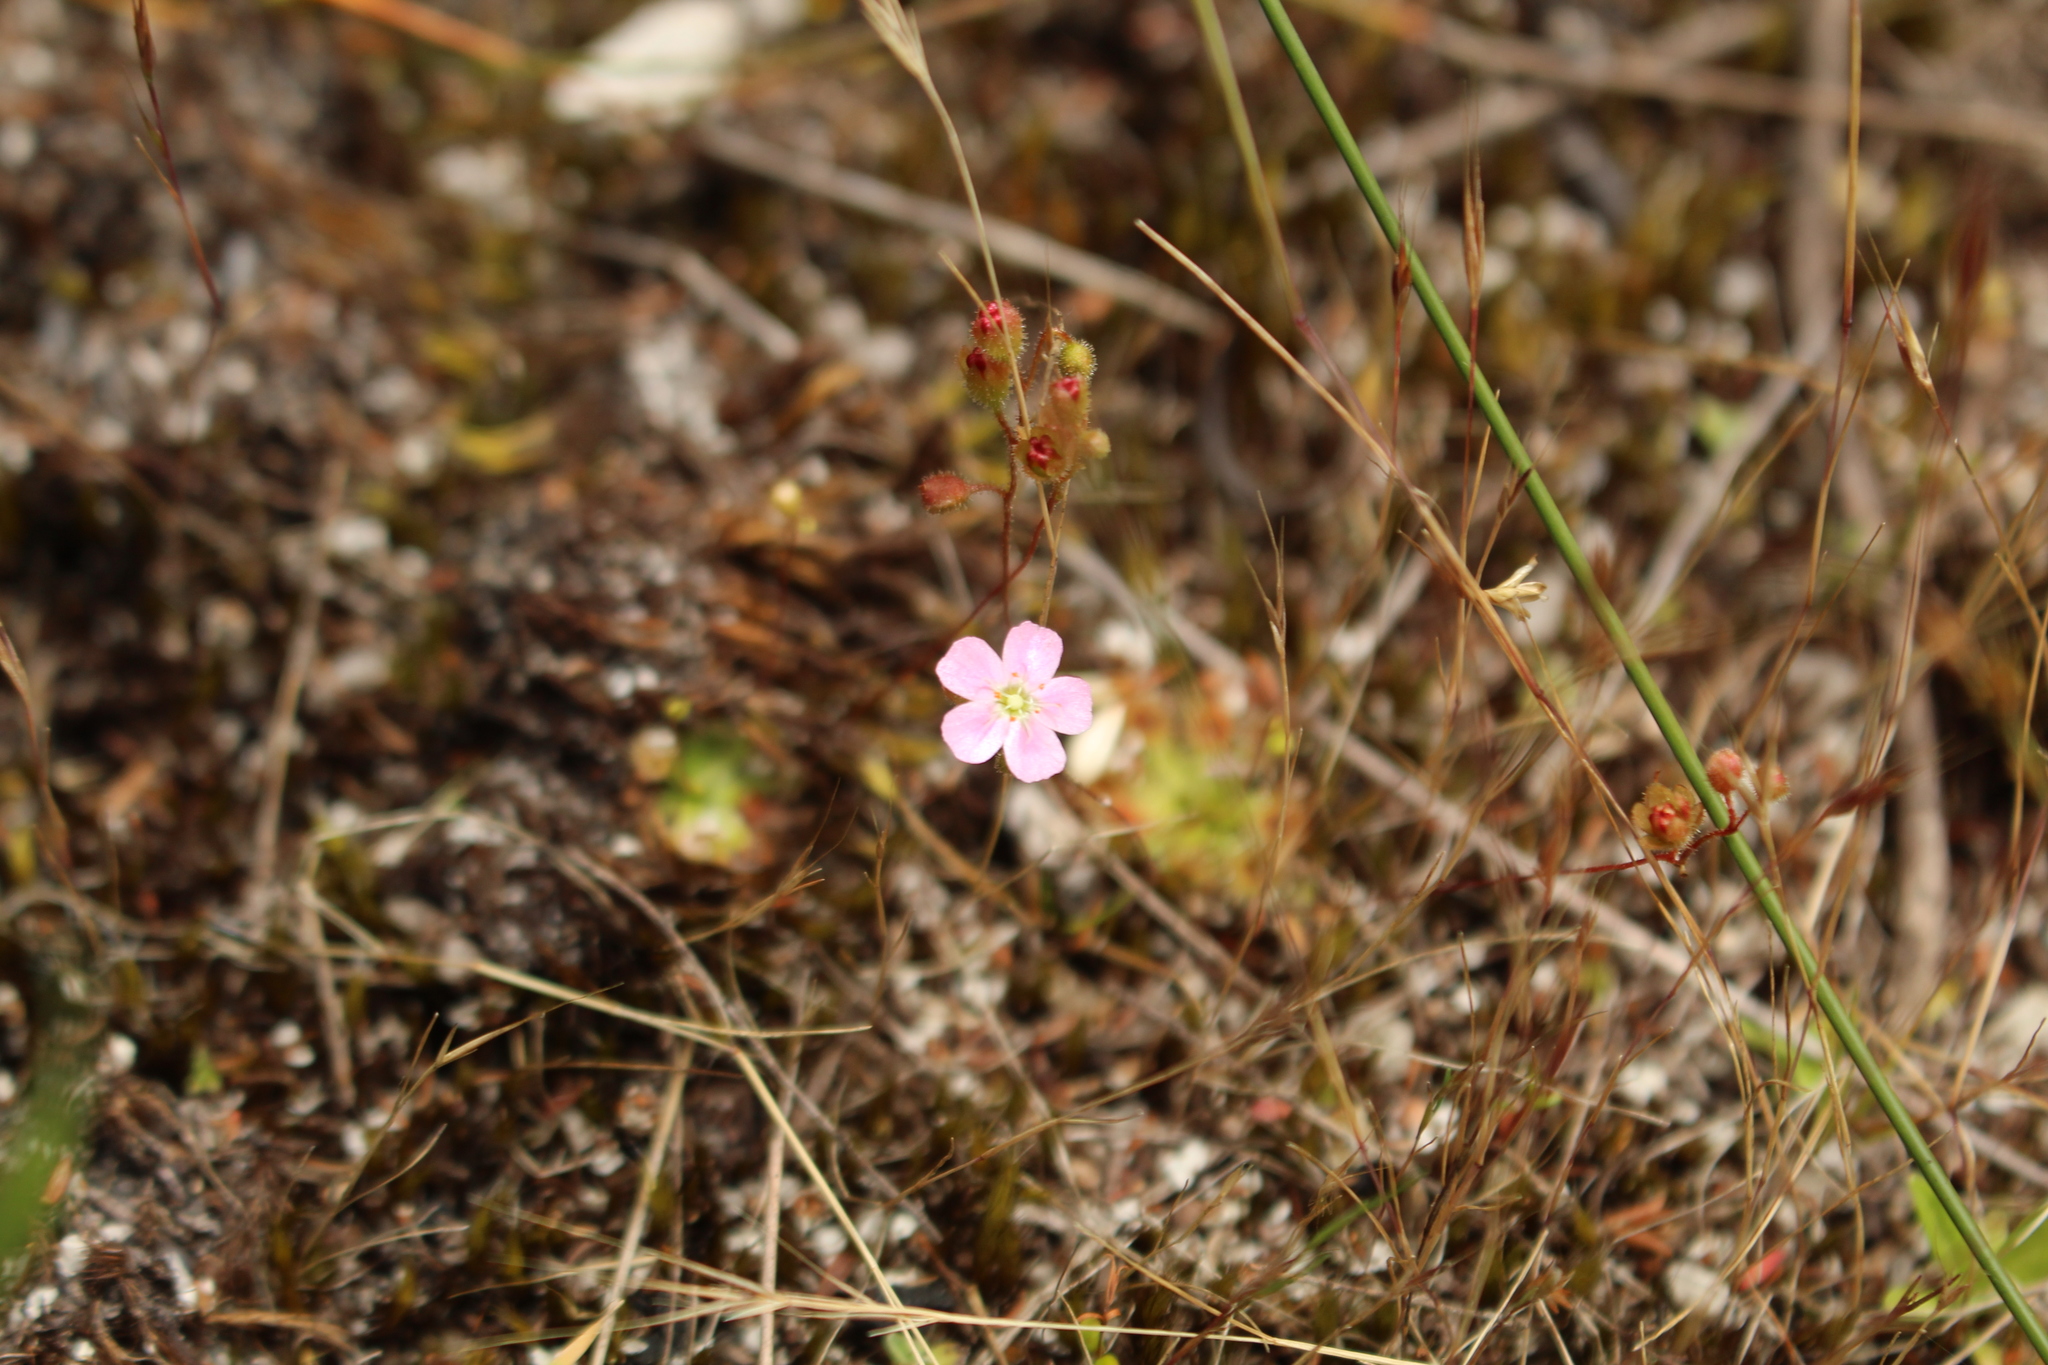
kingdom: Plantae
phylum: Tracheophyta
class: Magnoliopsida
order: Caryophyllales
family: Droseraceae
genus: Drosera
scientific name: Drosera pulchella
